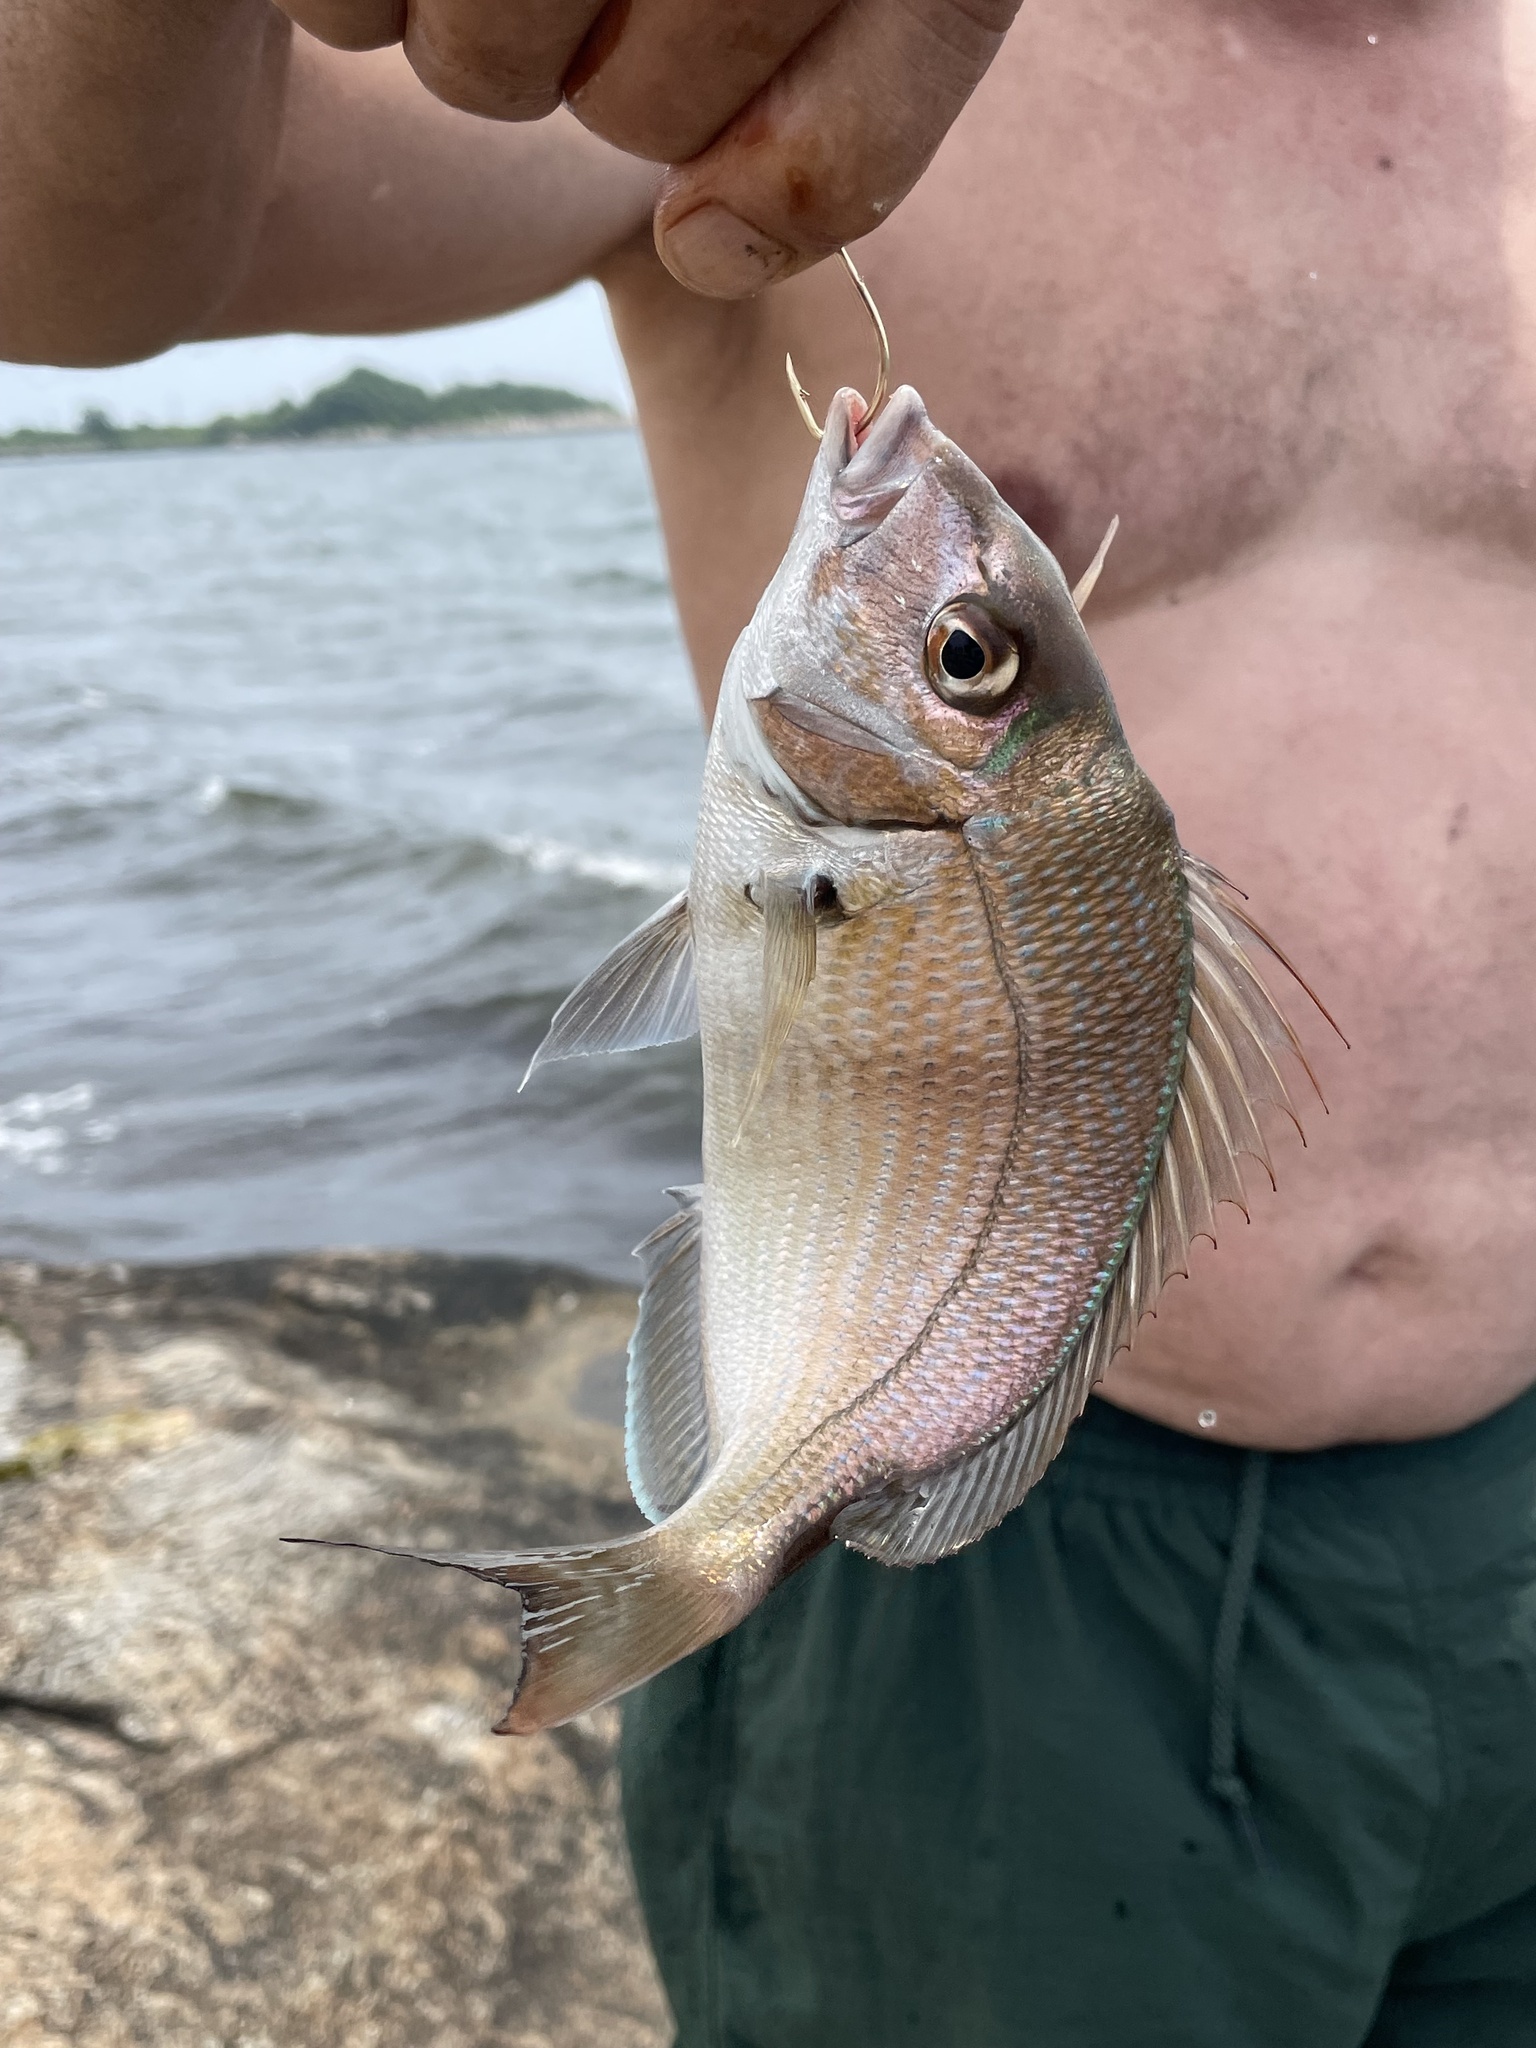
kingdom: Animalia
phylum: Chordata
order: Perciformes
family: Sparidae
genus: Stenotomus
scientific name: Stenotomus chrysops
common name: Scup
